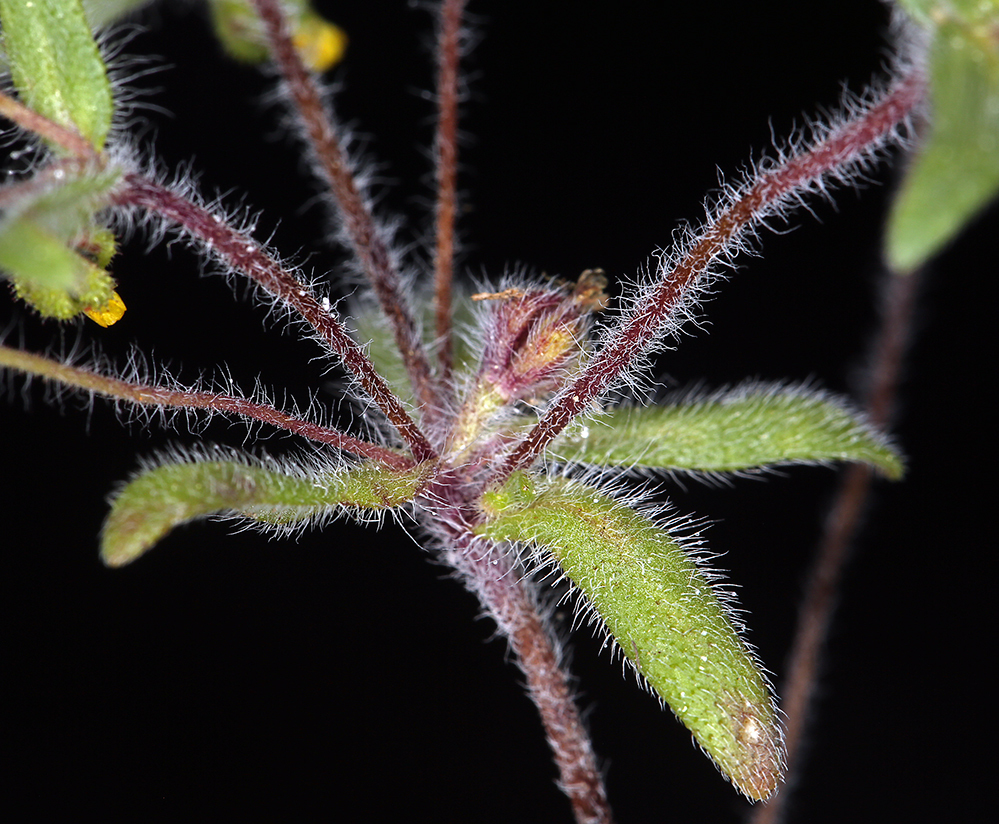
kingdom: Plantae
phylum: Tracheophyta
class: Magnoliopsida
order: Asterales
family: Asteraceae
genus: Hemizonella
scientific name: Hemizonella minima
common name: Opposite-leaved tarweed
